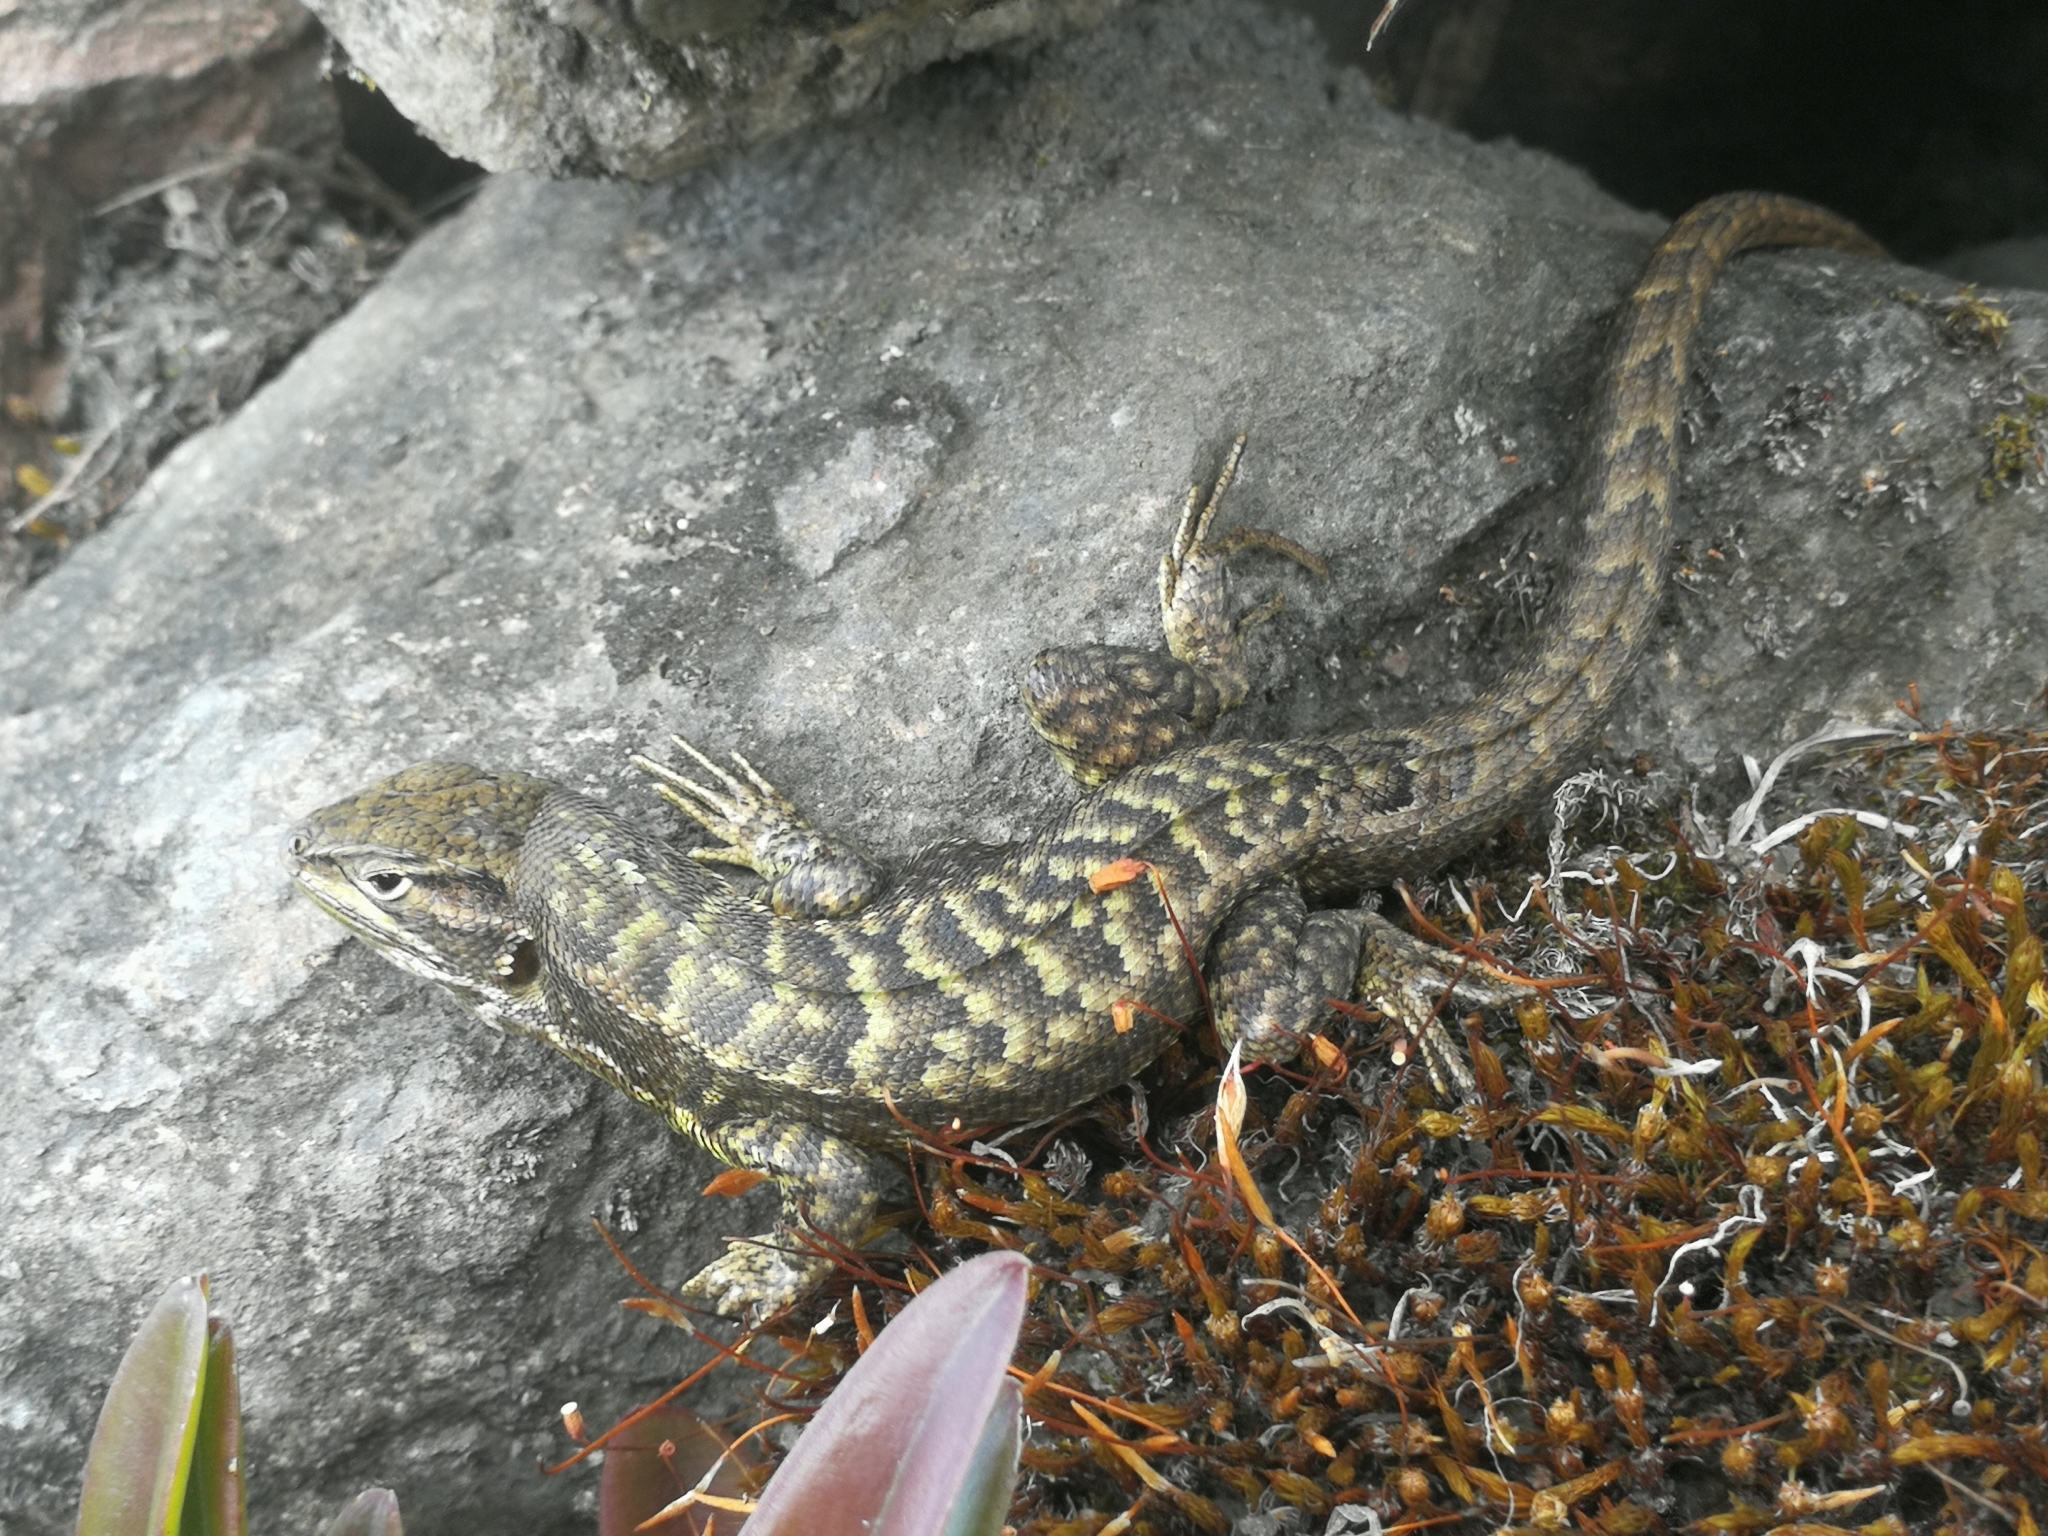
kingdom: Animalia
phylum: Chordata
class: Squamata
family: Tropiduridae
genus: Stenocercus
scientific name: Stenocercus guentheri
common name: Günther's whorltail iguana
